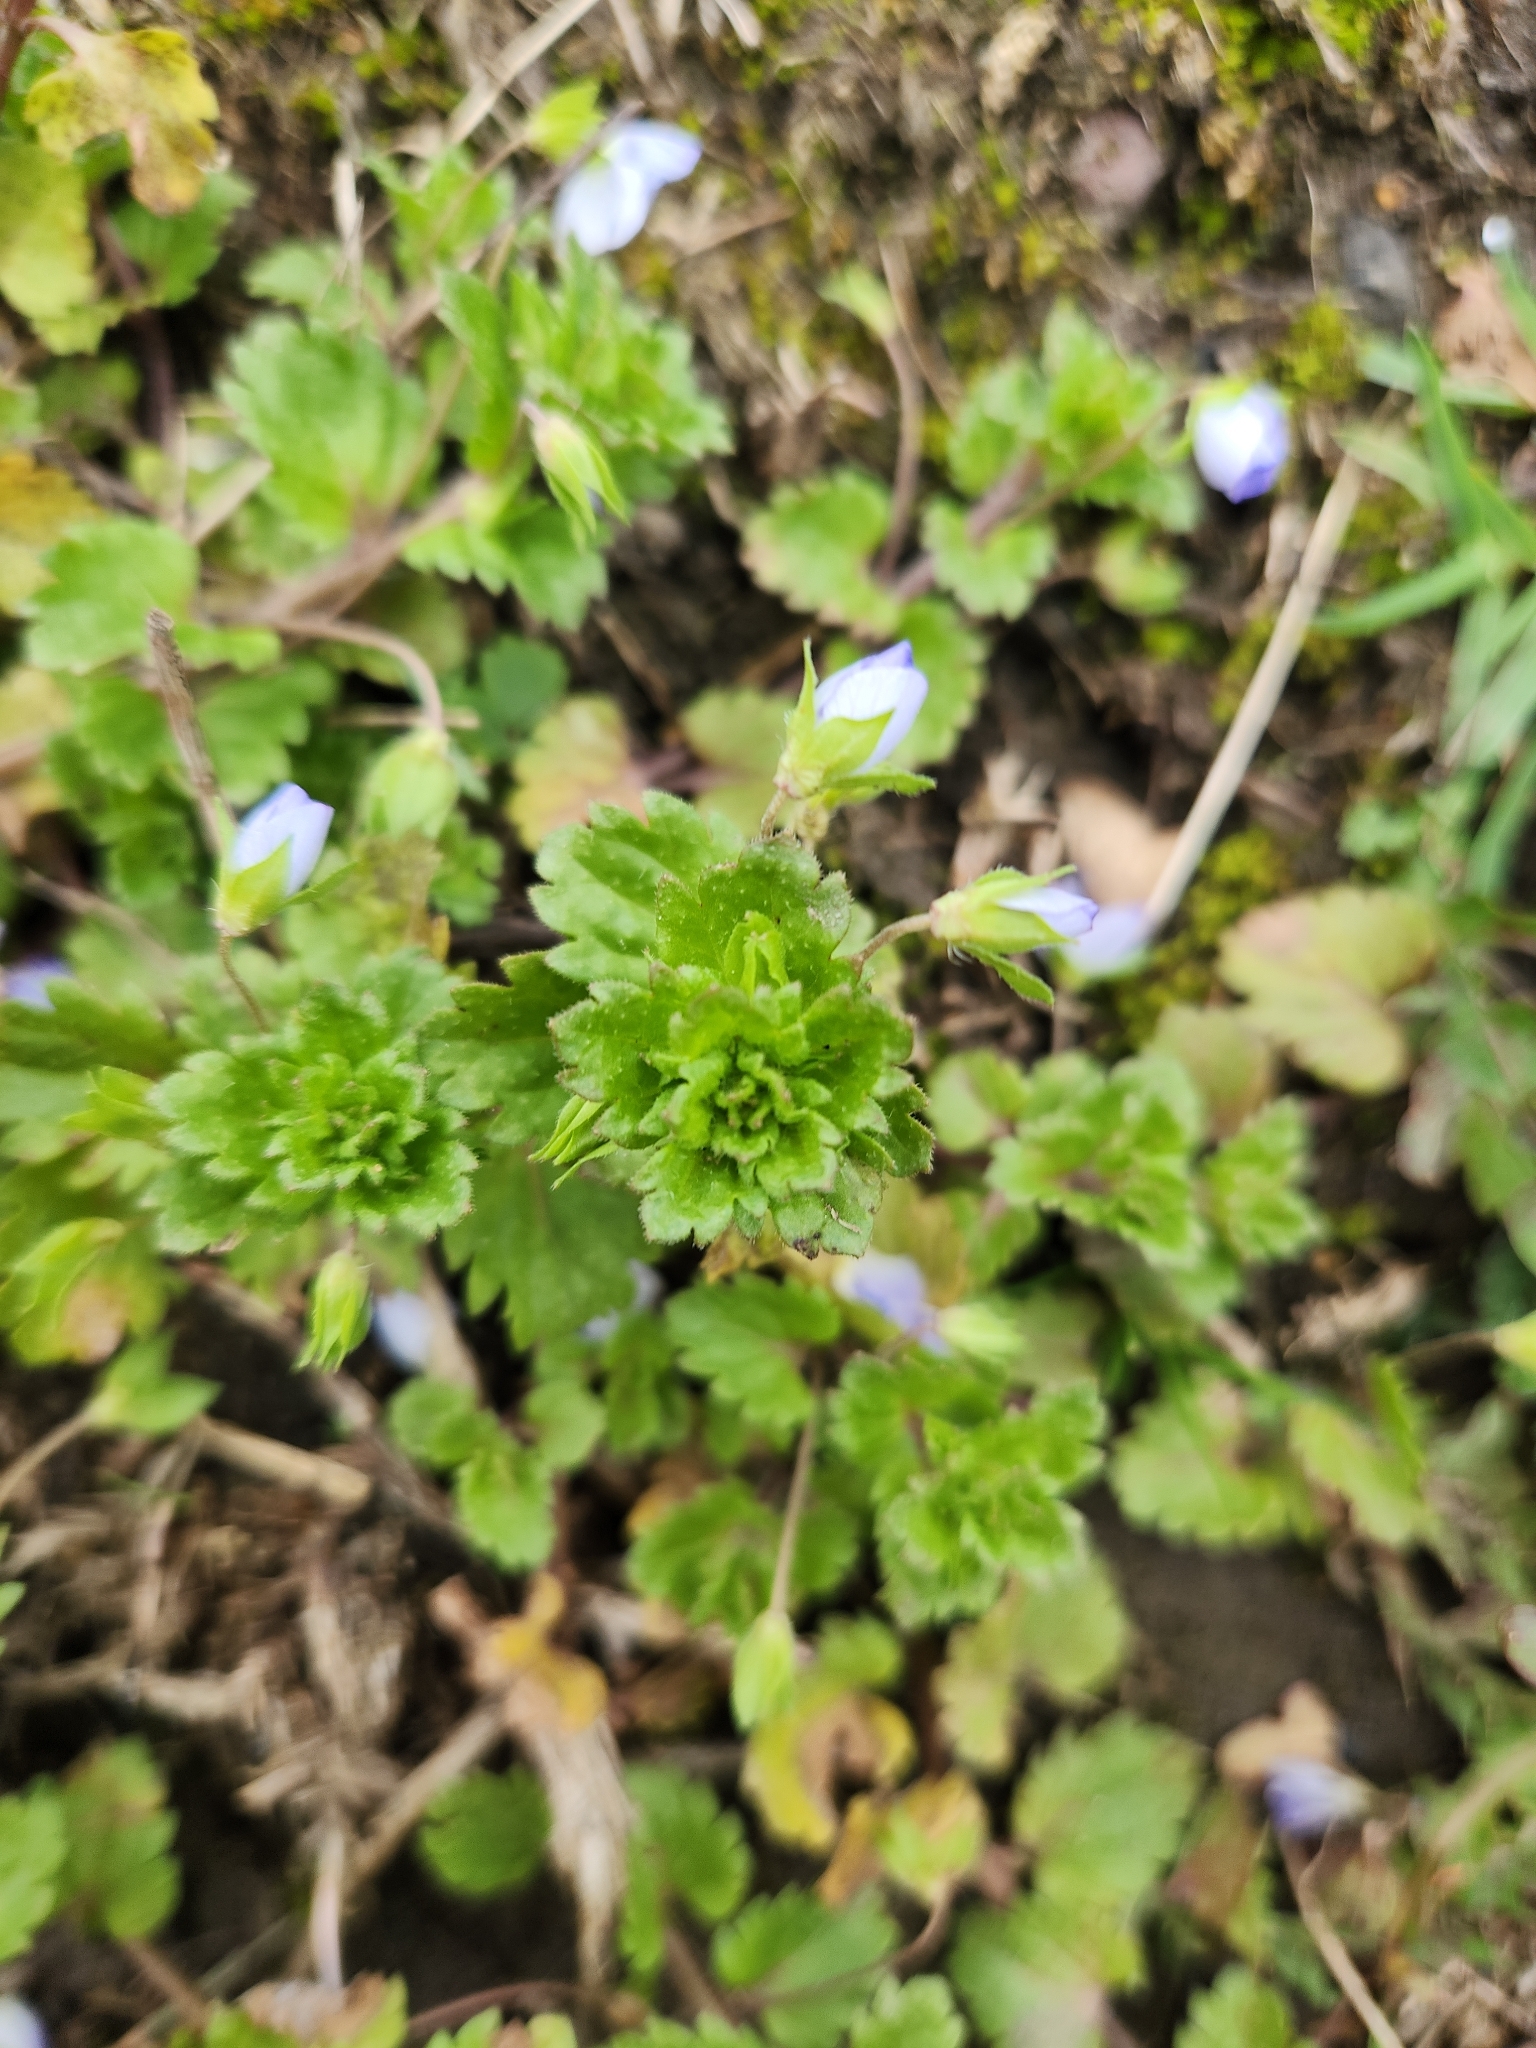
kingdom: Plantae
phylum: Tracheophyta
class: Magnoliopsida
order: Lamiales
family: Plantaginaceae
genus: Veronica
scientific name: Veronica persica
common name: Common field-speedwell
